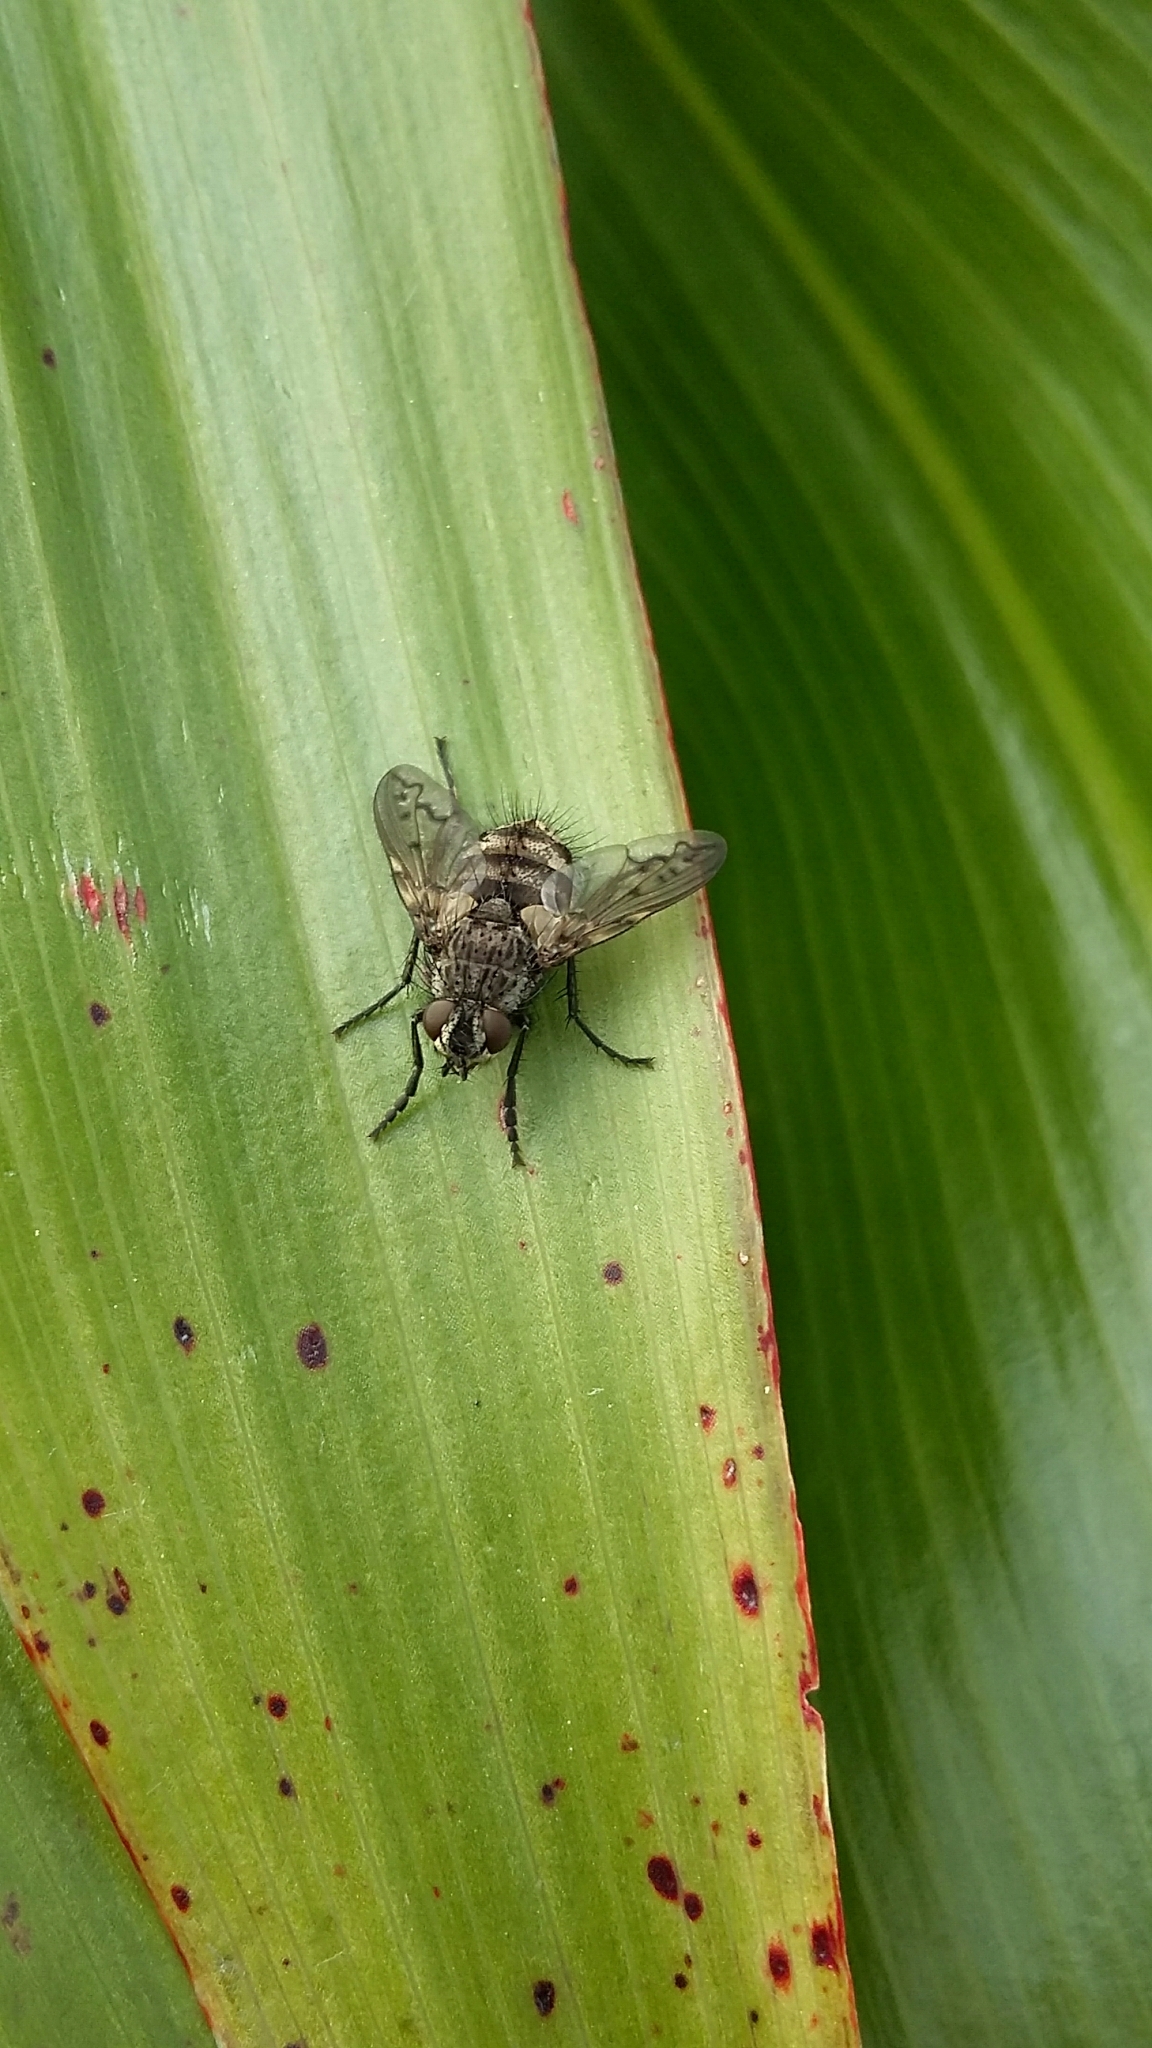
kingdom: Animalia
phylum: Arthropoda
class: Insecta
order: Diptera
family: Tachinidae
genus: Mallochomacquartia
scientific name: Mallochomacquartia vexata
